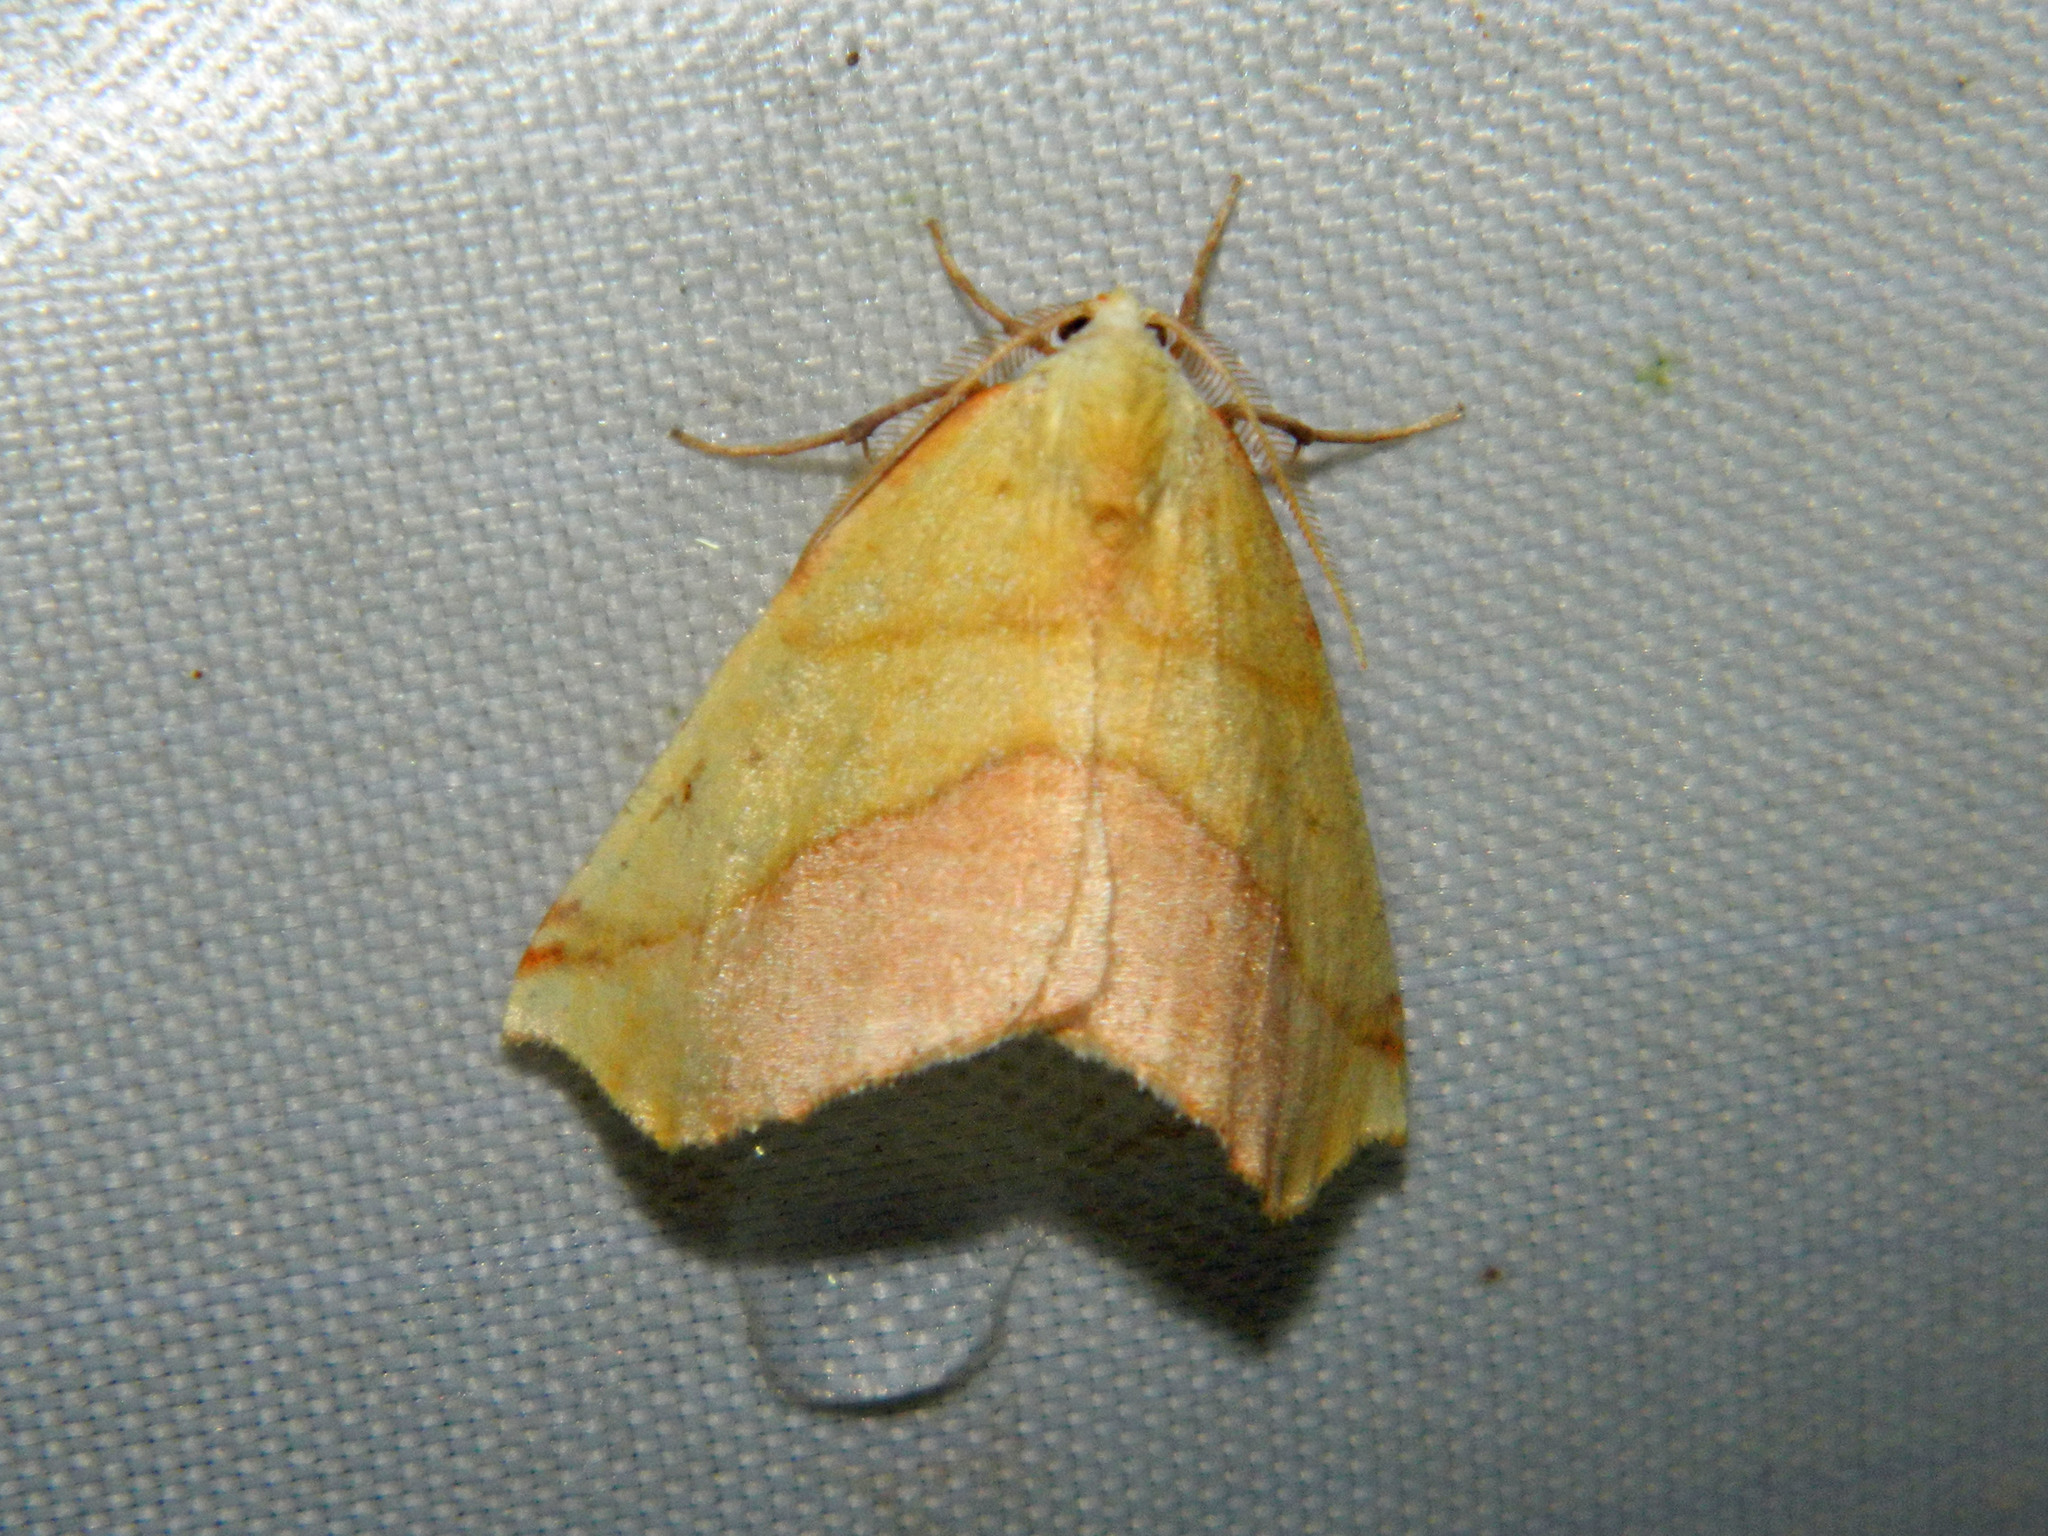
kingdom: Animalia
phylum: Arthropoda
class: Insecta
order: Lepidoptera
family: Geometridae
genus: Sicya
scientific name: Sicya macularia
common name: Sharp-lined yellow
